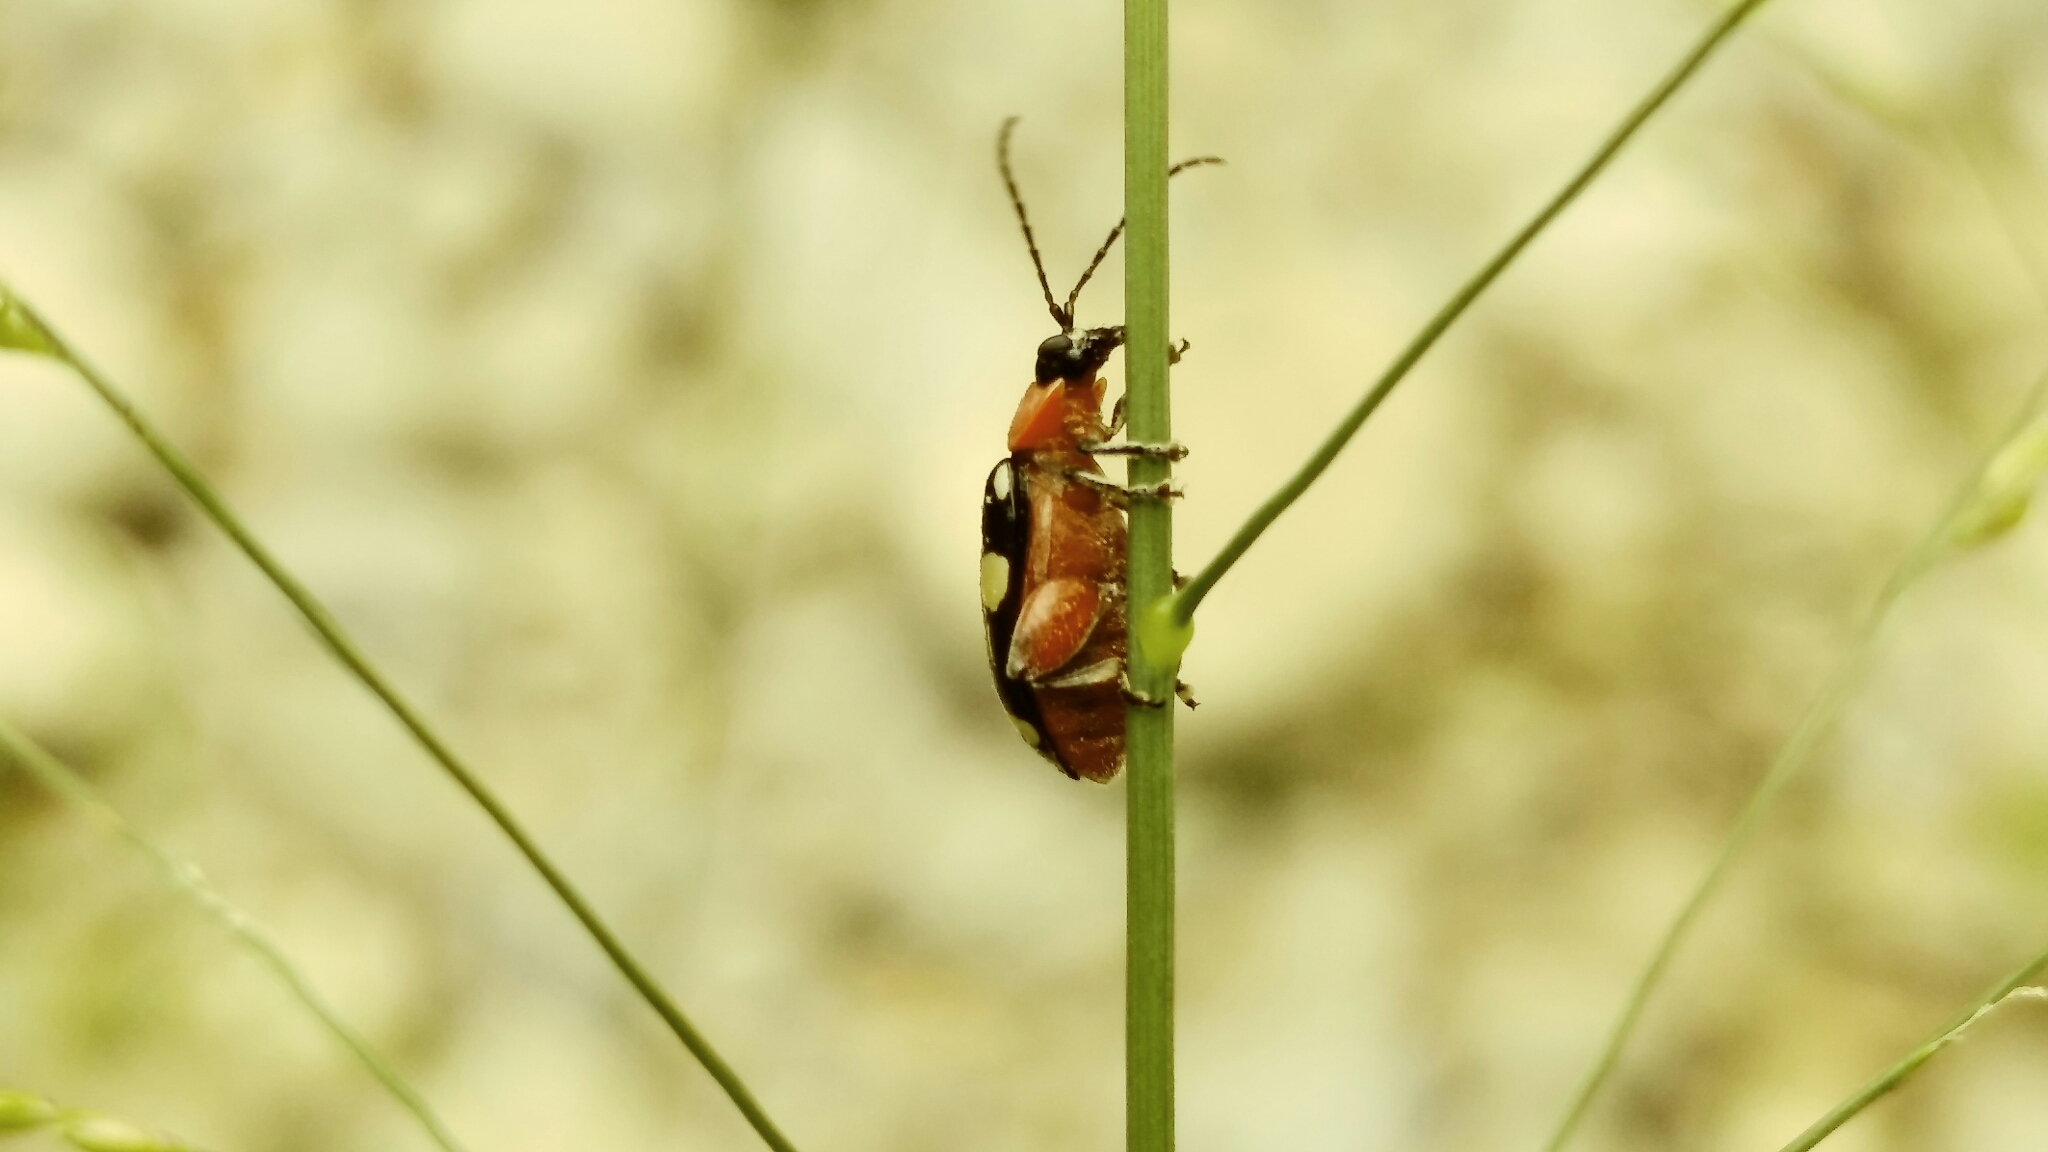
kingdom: Animalia
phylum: Arthropoda
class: Insecta
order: Coleoptera
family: Chrysomelidae
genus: Omophoita
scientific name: Omophoita cyanipennis
